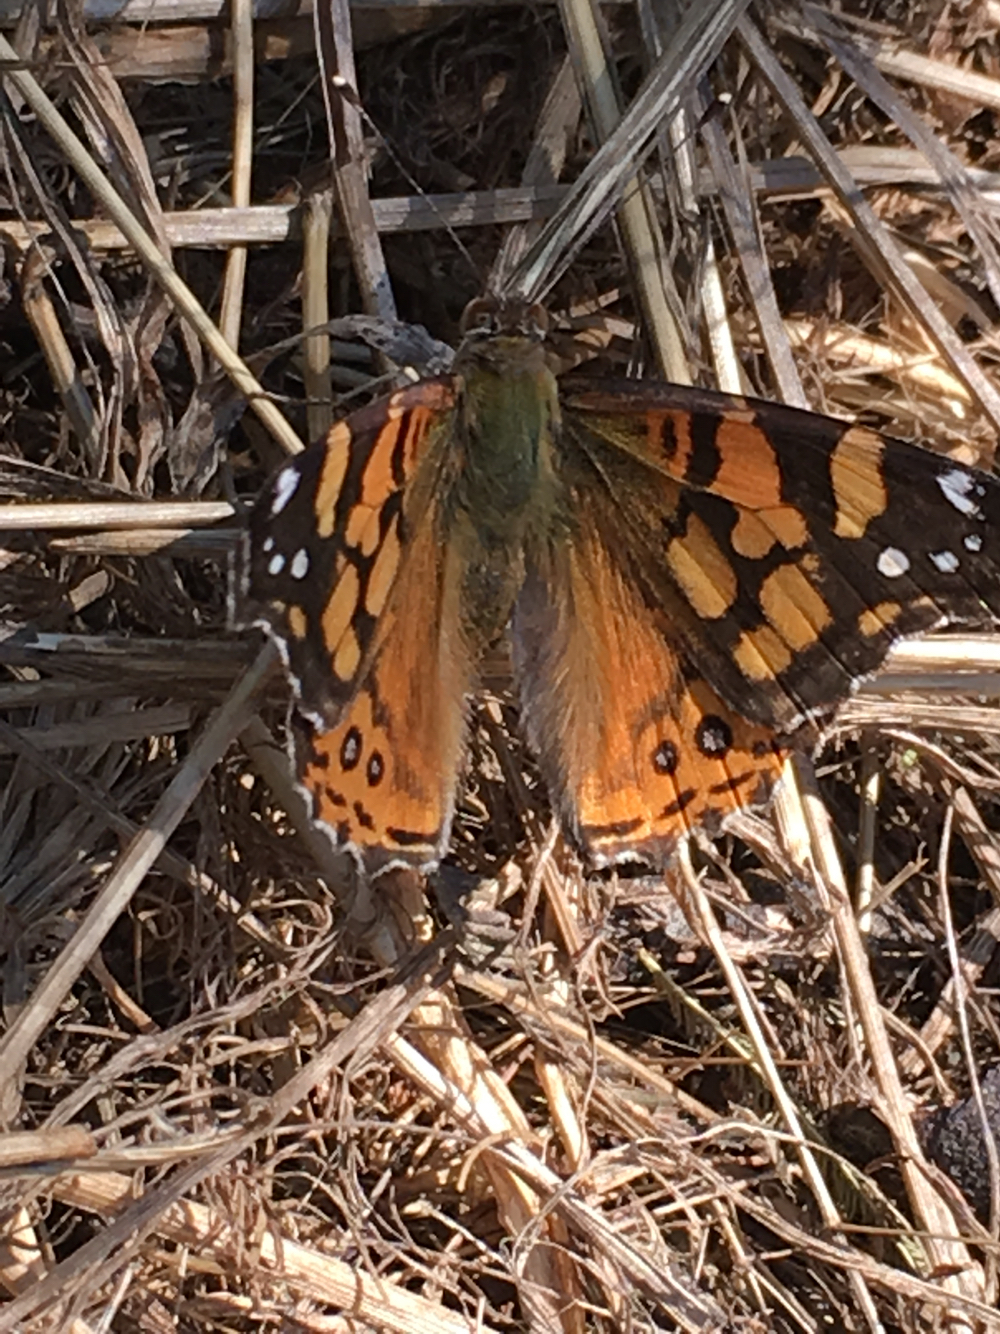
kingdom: Animalia
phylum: Arthropoda
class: Insecta
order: Lepidoptera
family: Nymphalidae
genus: Vanessa
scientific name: Vanessa annabella
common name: West coast lady
